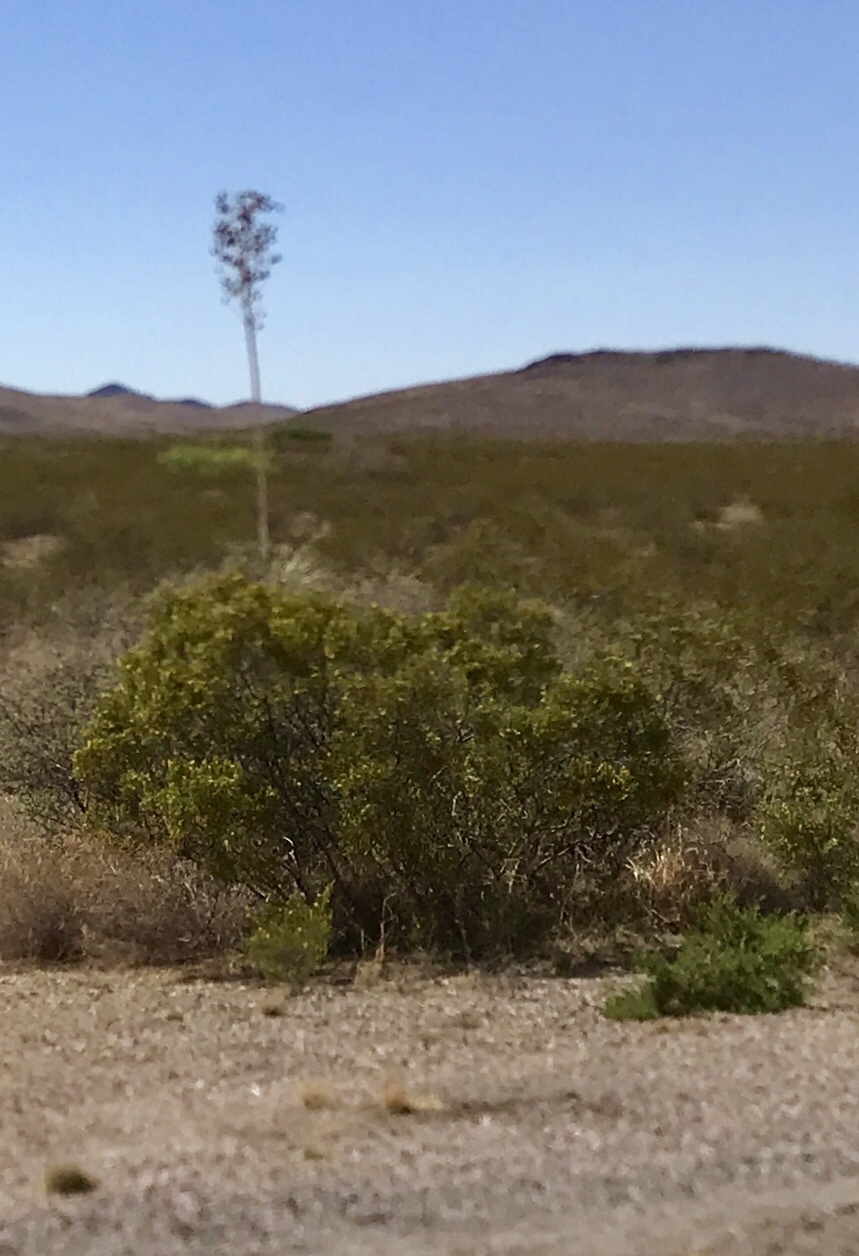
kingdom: Plantae
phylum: Tracheophyta
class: Magnoliopsida
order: Zygophyllales
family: Zygophyllaceae
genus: Larrea
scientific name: Larrea tridentata
